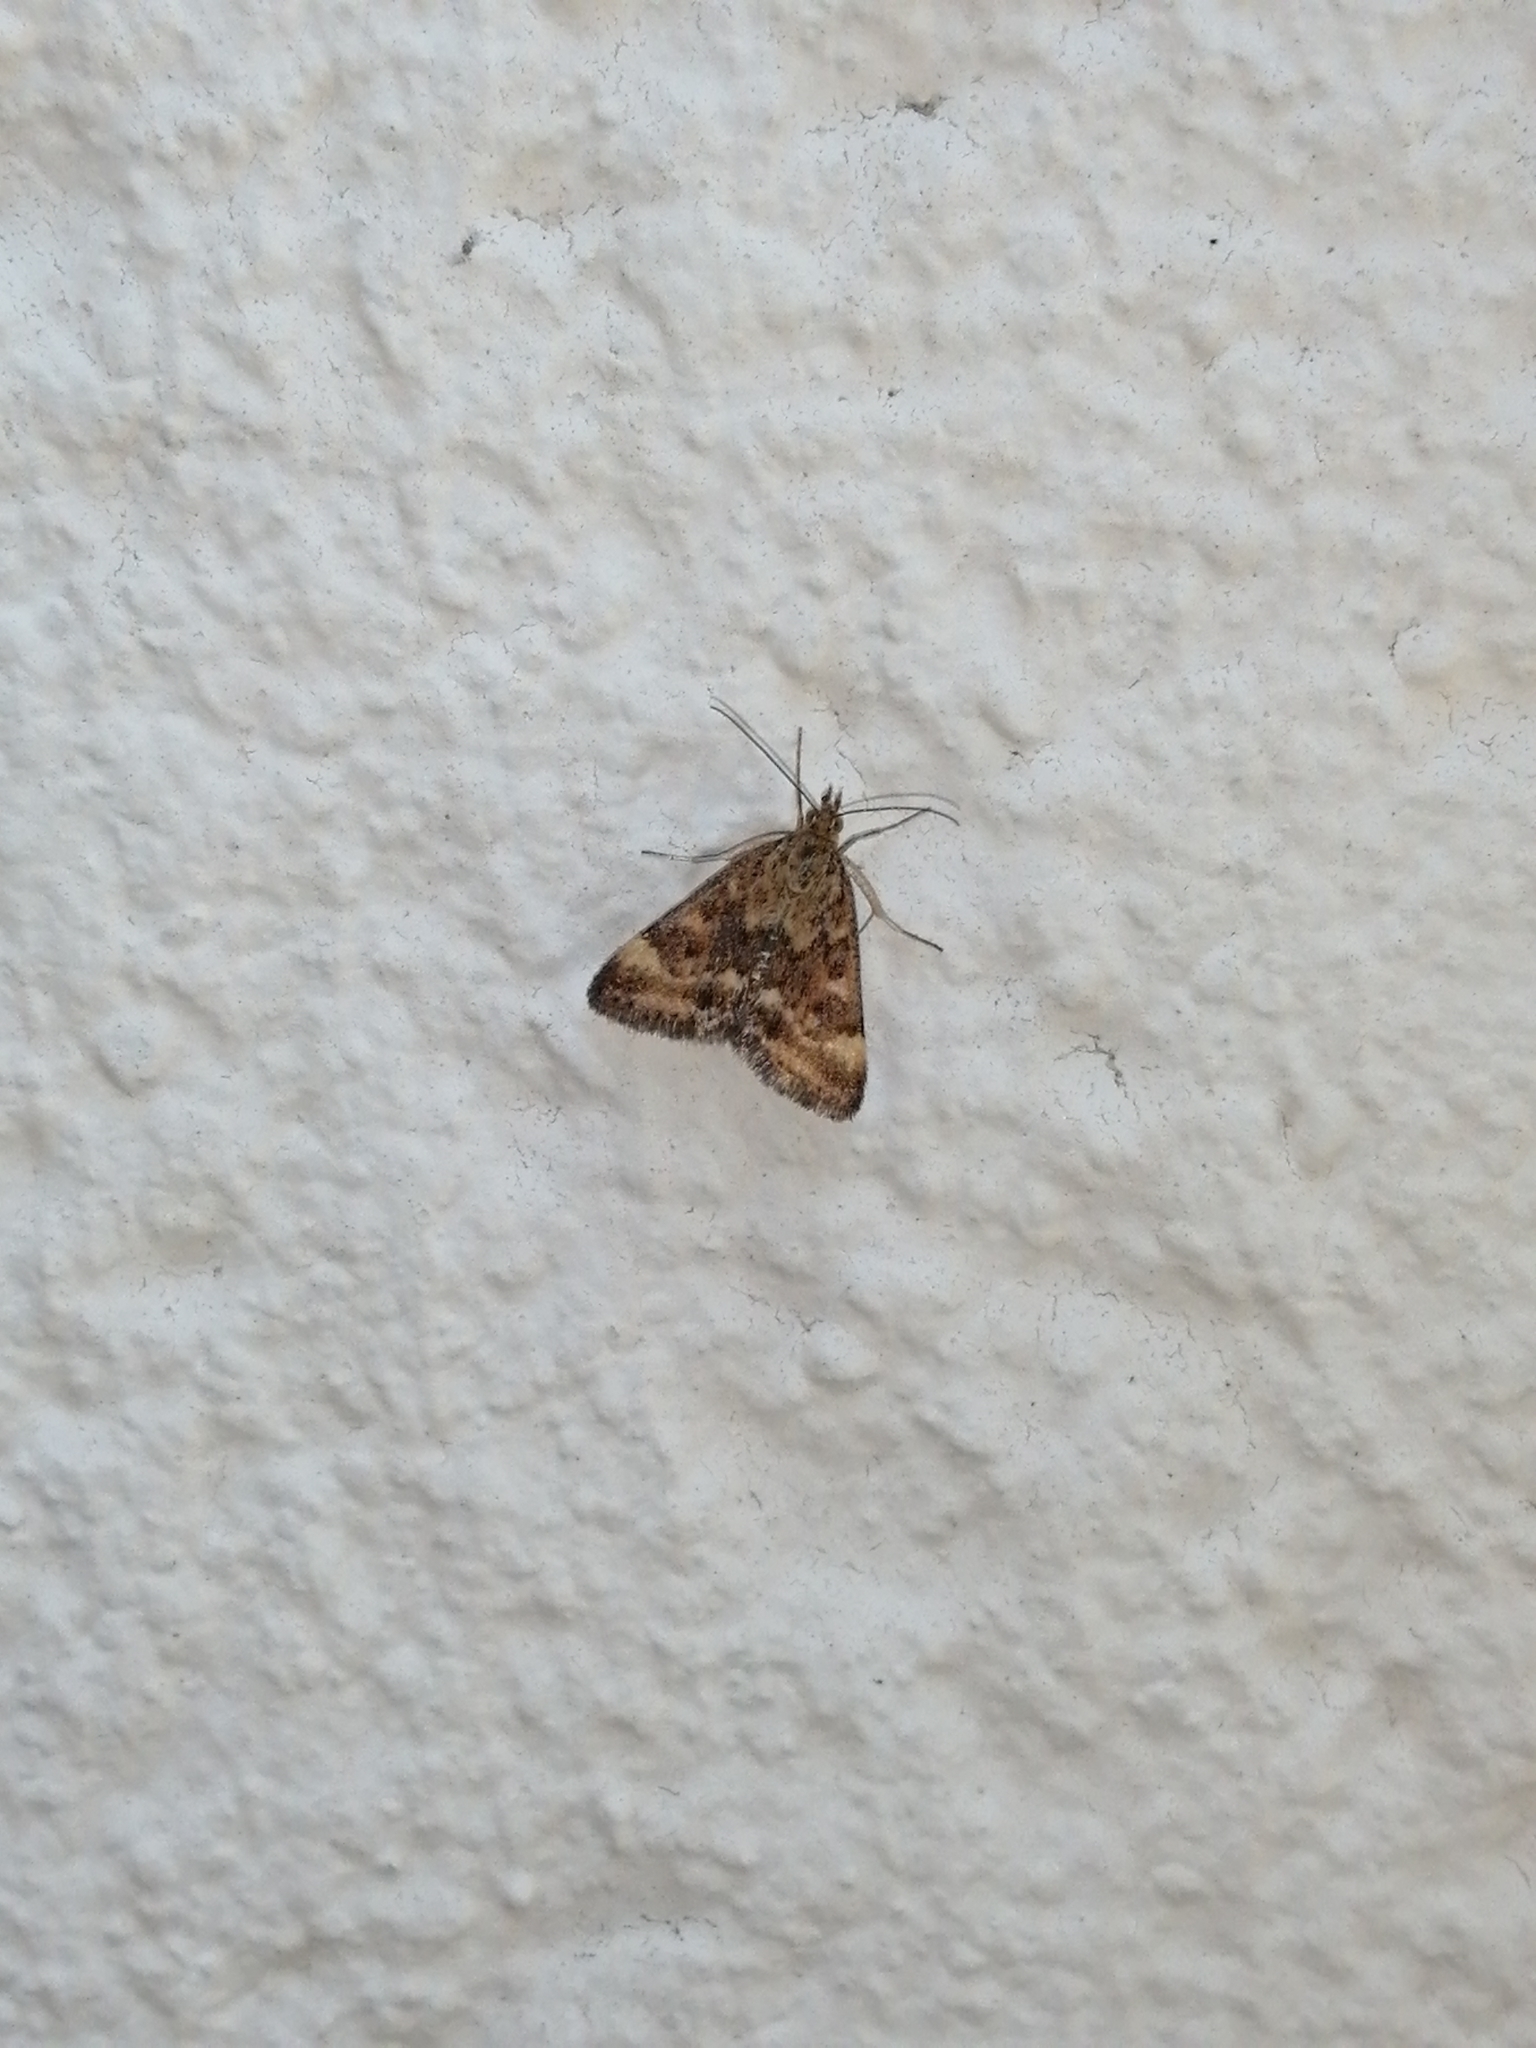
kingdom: Animalia
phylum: Arthropoda
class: Insecta
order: Lepidoptera
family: Crambidae
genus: Pyrausta
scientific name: Pyrausta despicata
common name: Straw-barred pearl
